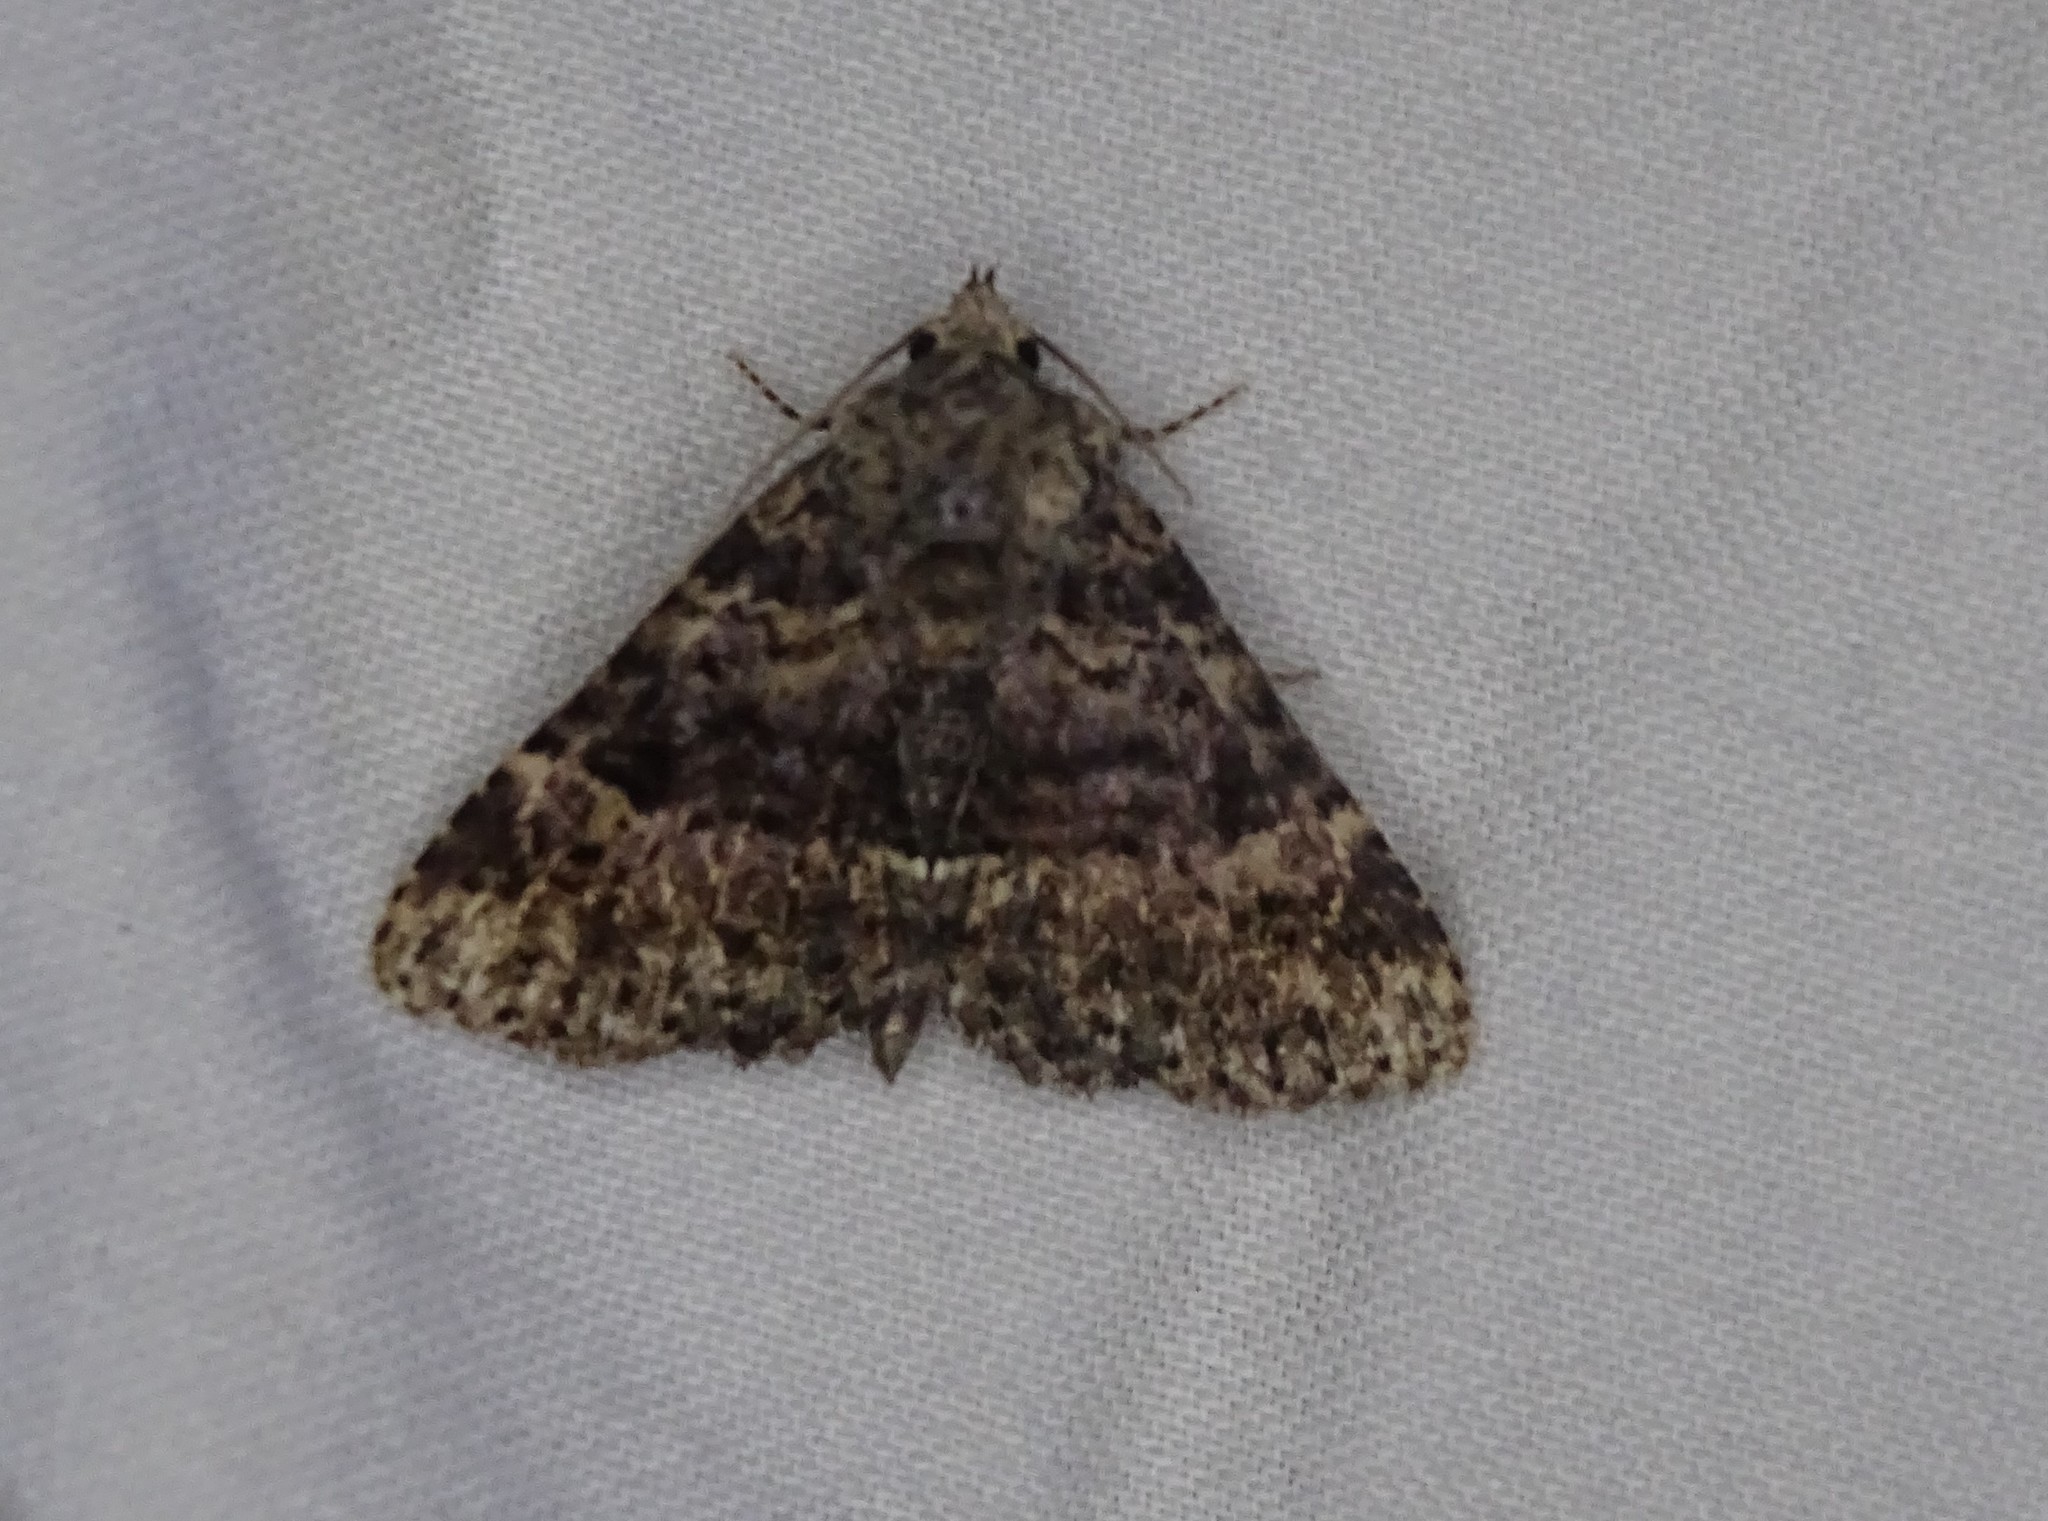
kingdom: Animalia
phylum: Arthropoda
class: Insecta
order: Lepidoptera
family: Erebidae
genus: Metalectra
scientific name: Metalectra discalis
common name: Common fungus moth
